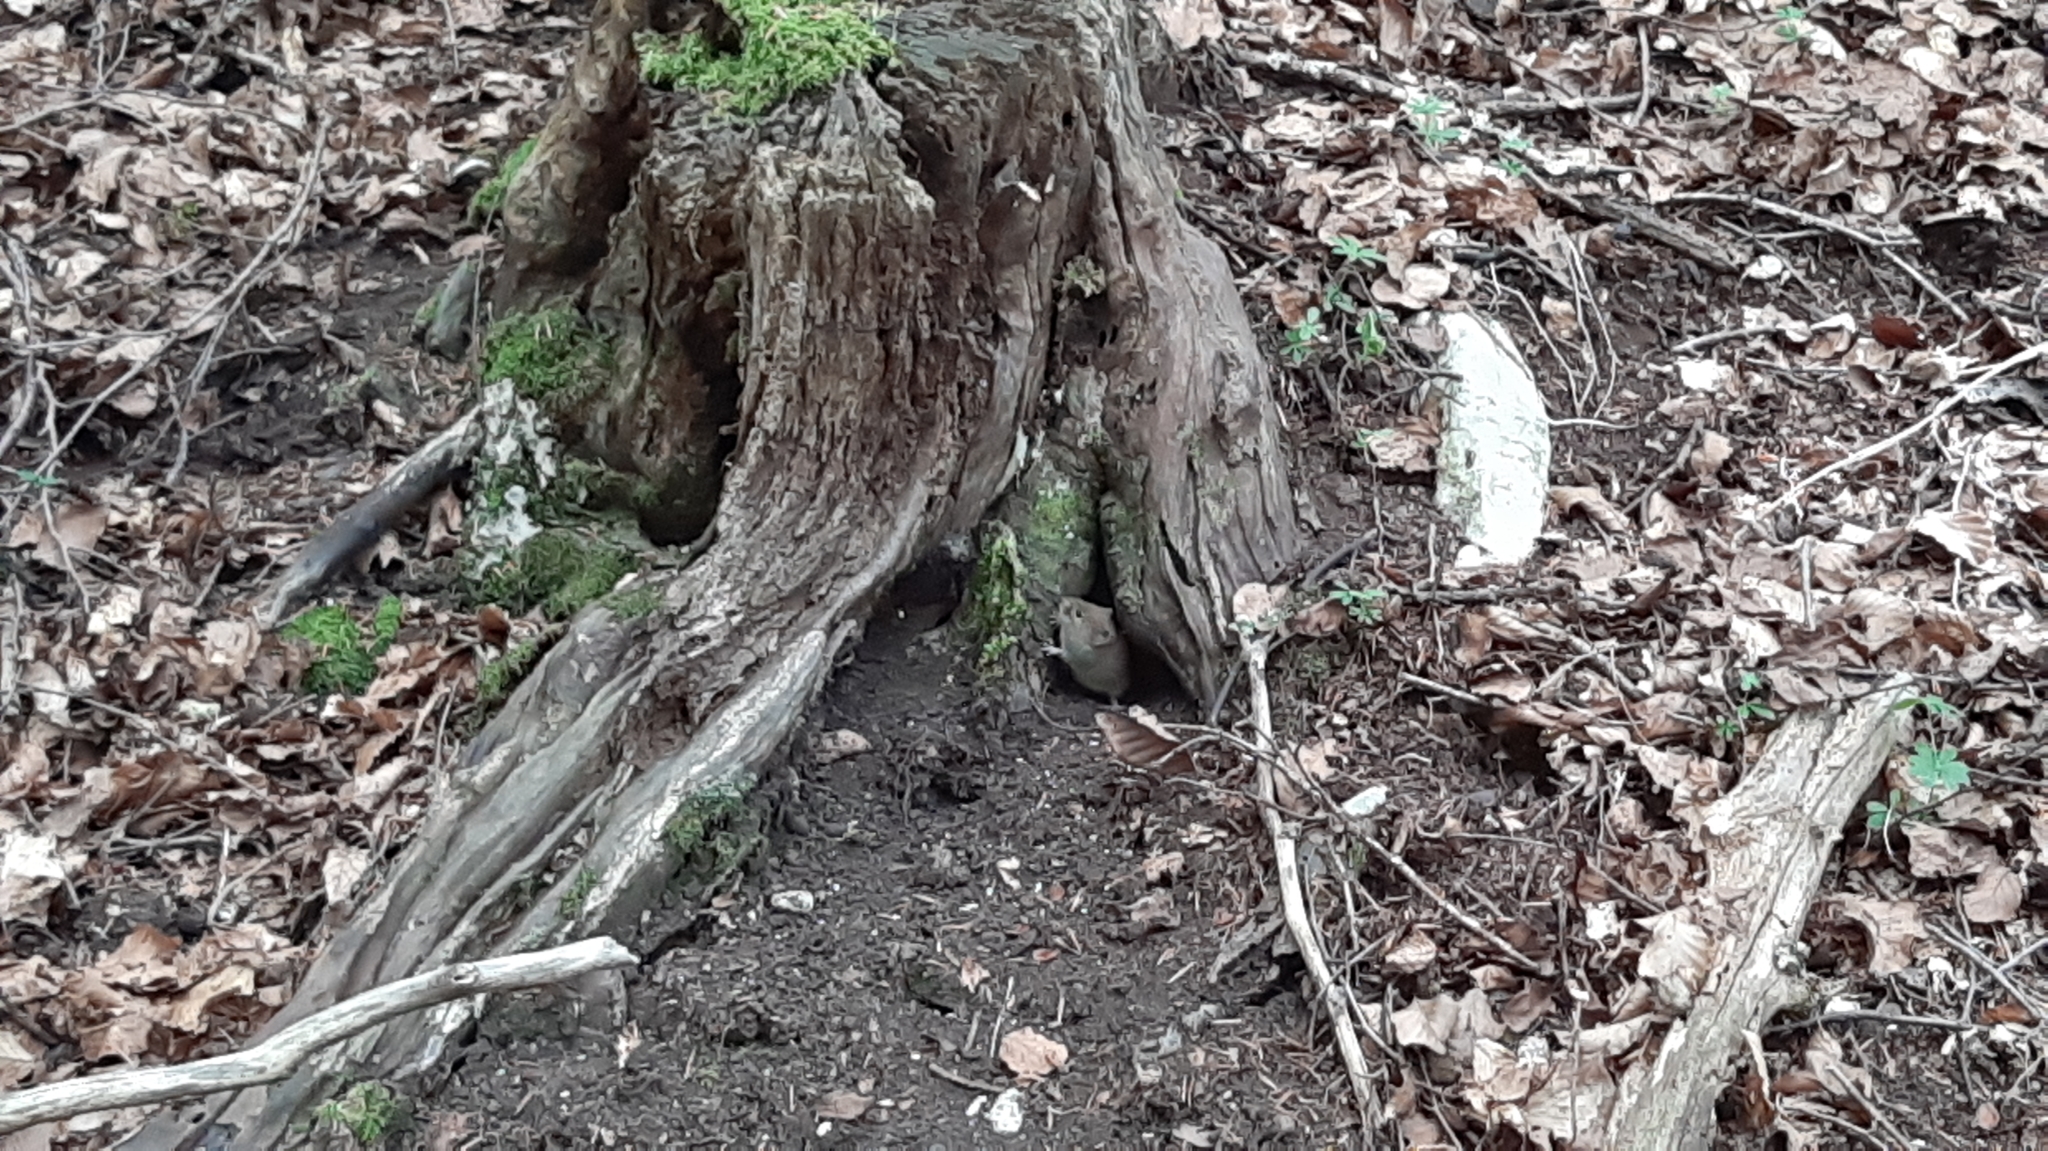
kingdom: Animalia
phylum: Chordata
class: Mammalia
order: Rodentia
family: Cricetidae
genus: Myodes
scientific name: Myodes glareolus
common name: Bank vole
